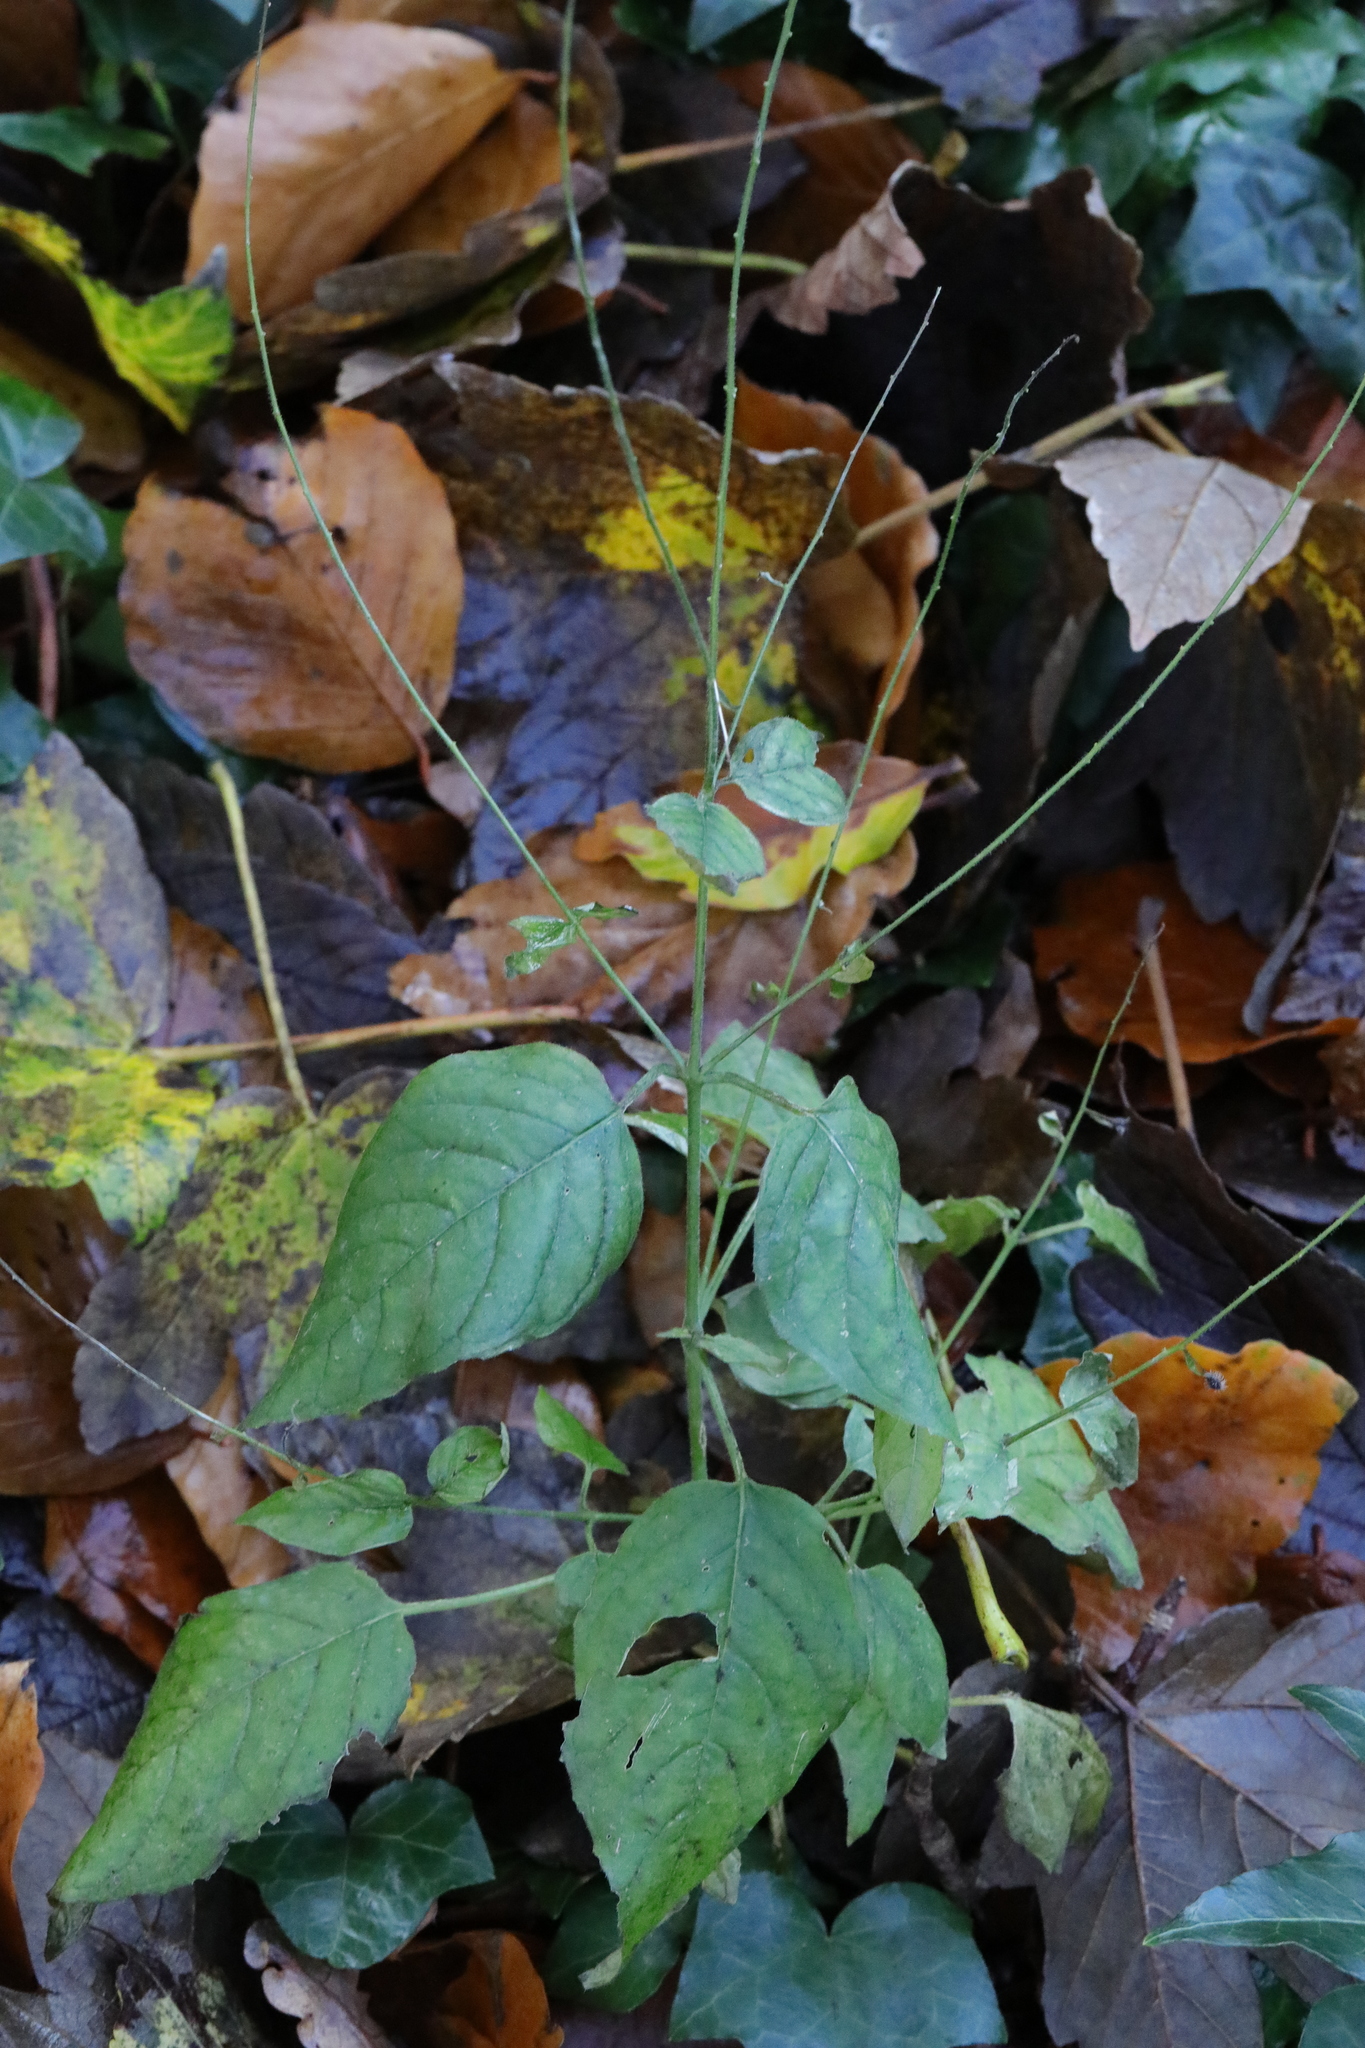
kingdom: Plantae
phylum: Tracheophyta
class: Magnoliopsida
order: Myrtales
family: Onagraceae
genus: Circaea
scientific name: Circaea lutetiana
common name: Enchanter's-nightshade
